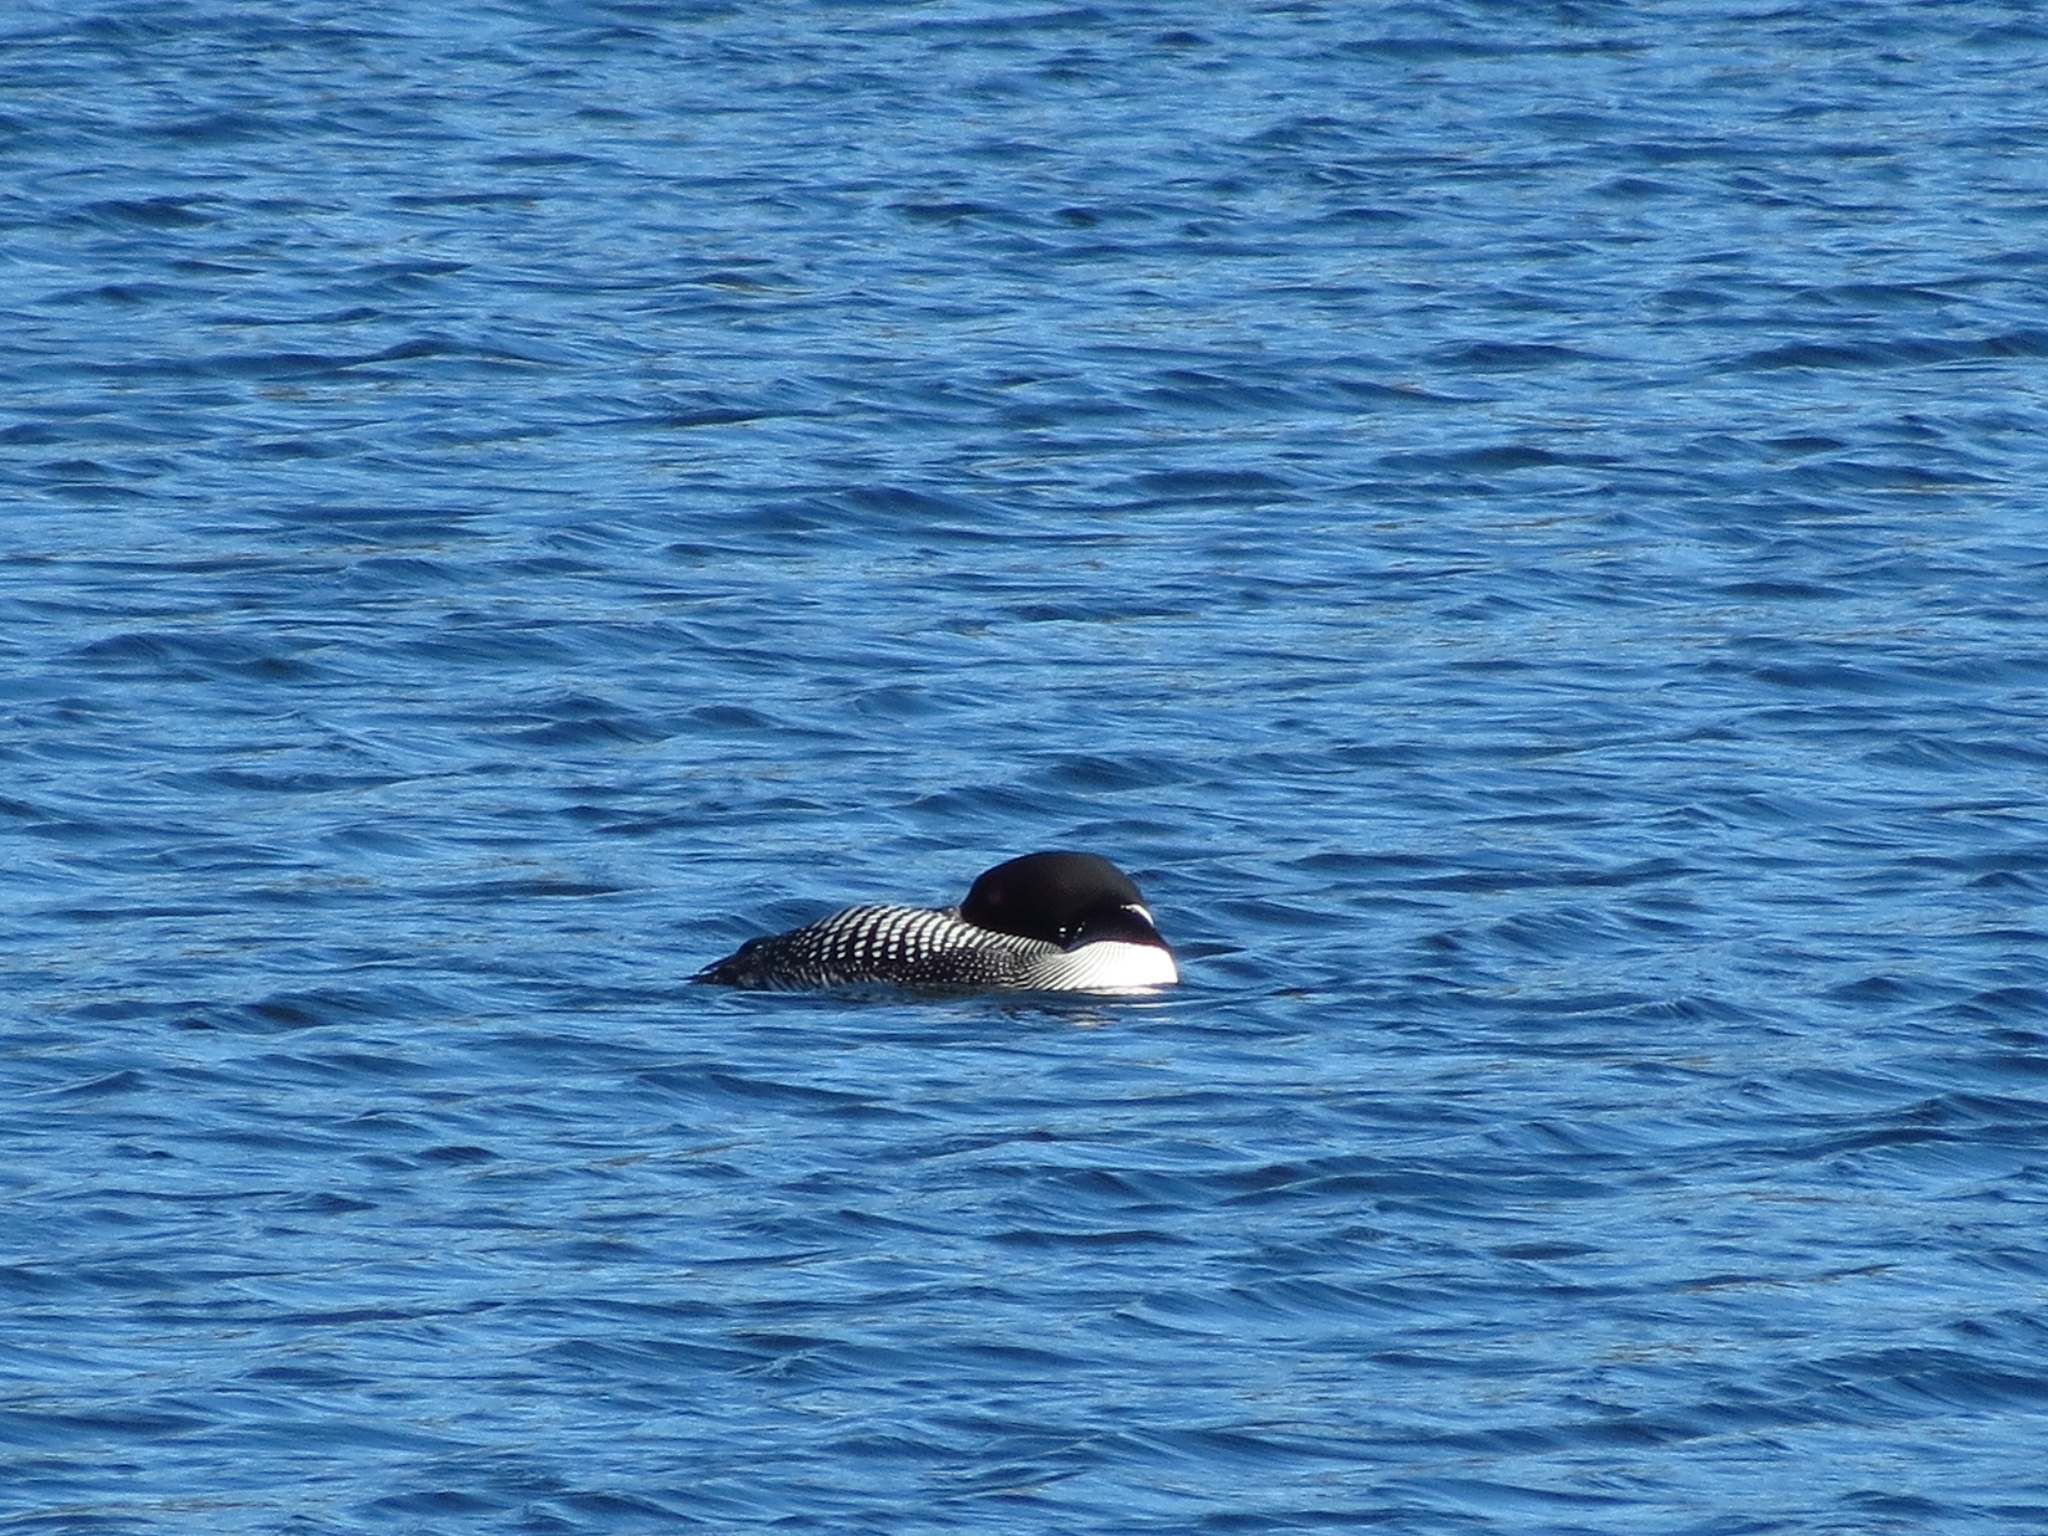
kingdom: Animalia
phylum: Chordata
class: Aves
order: Gaviiformes
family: Gaviidae
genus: Gavia
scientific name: Gavia immer
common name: Common loon
